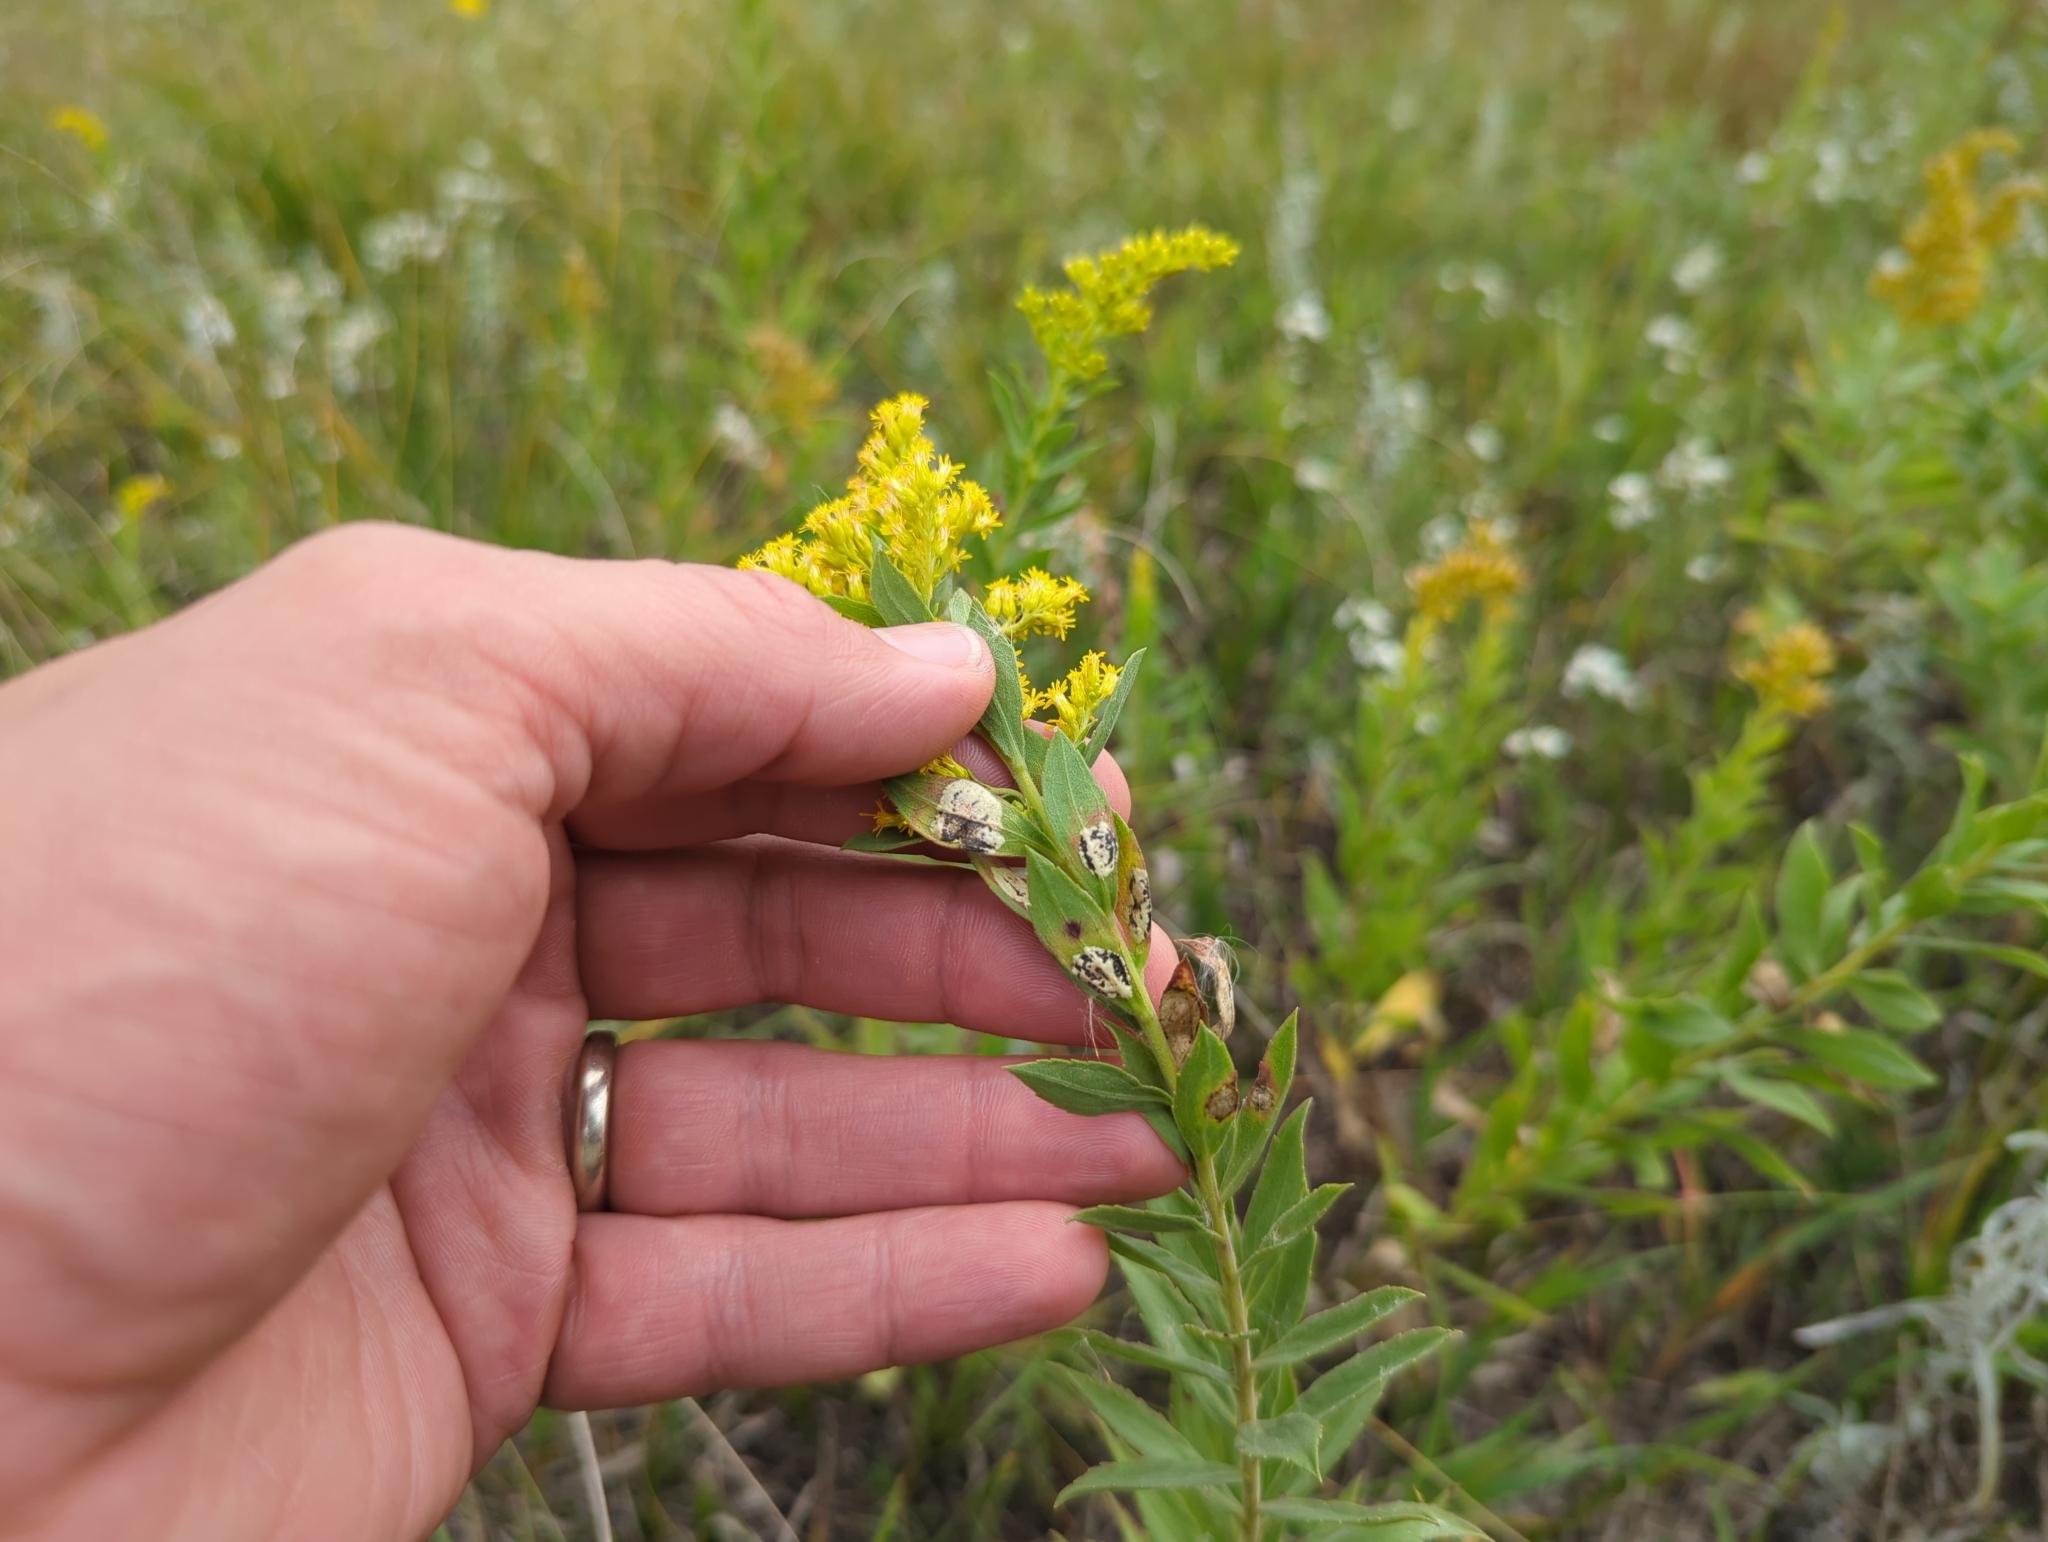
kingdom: Animalia
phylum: Arthropoda
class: Insecta
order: Diptera
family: Cecidomyiidae
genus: Asteromyia
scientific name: Asteromyia carbonifera
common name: Carbonifera goldenrod gall midge
